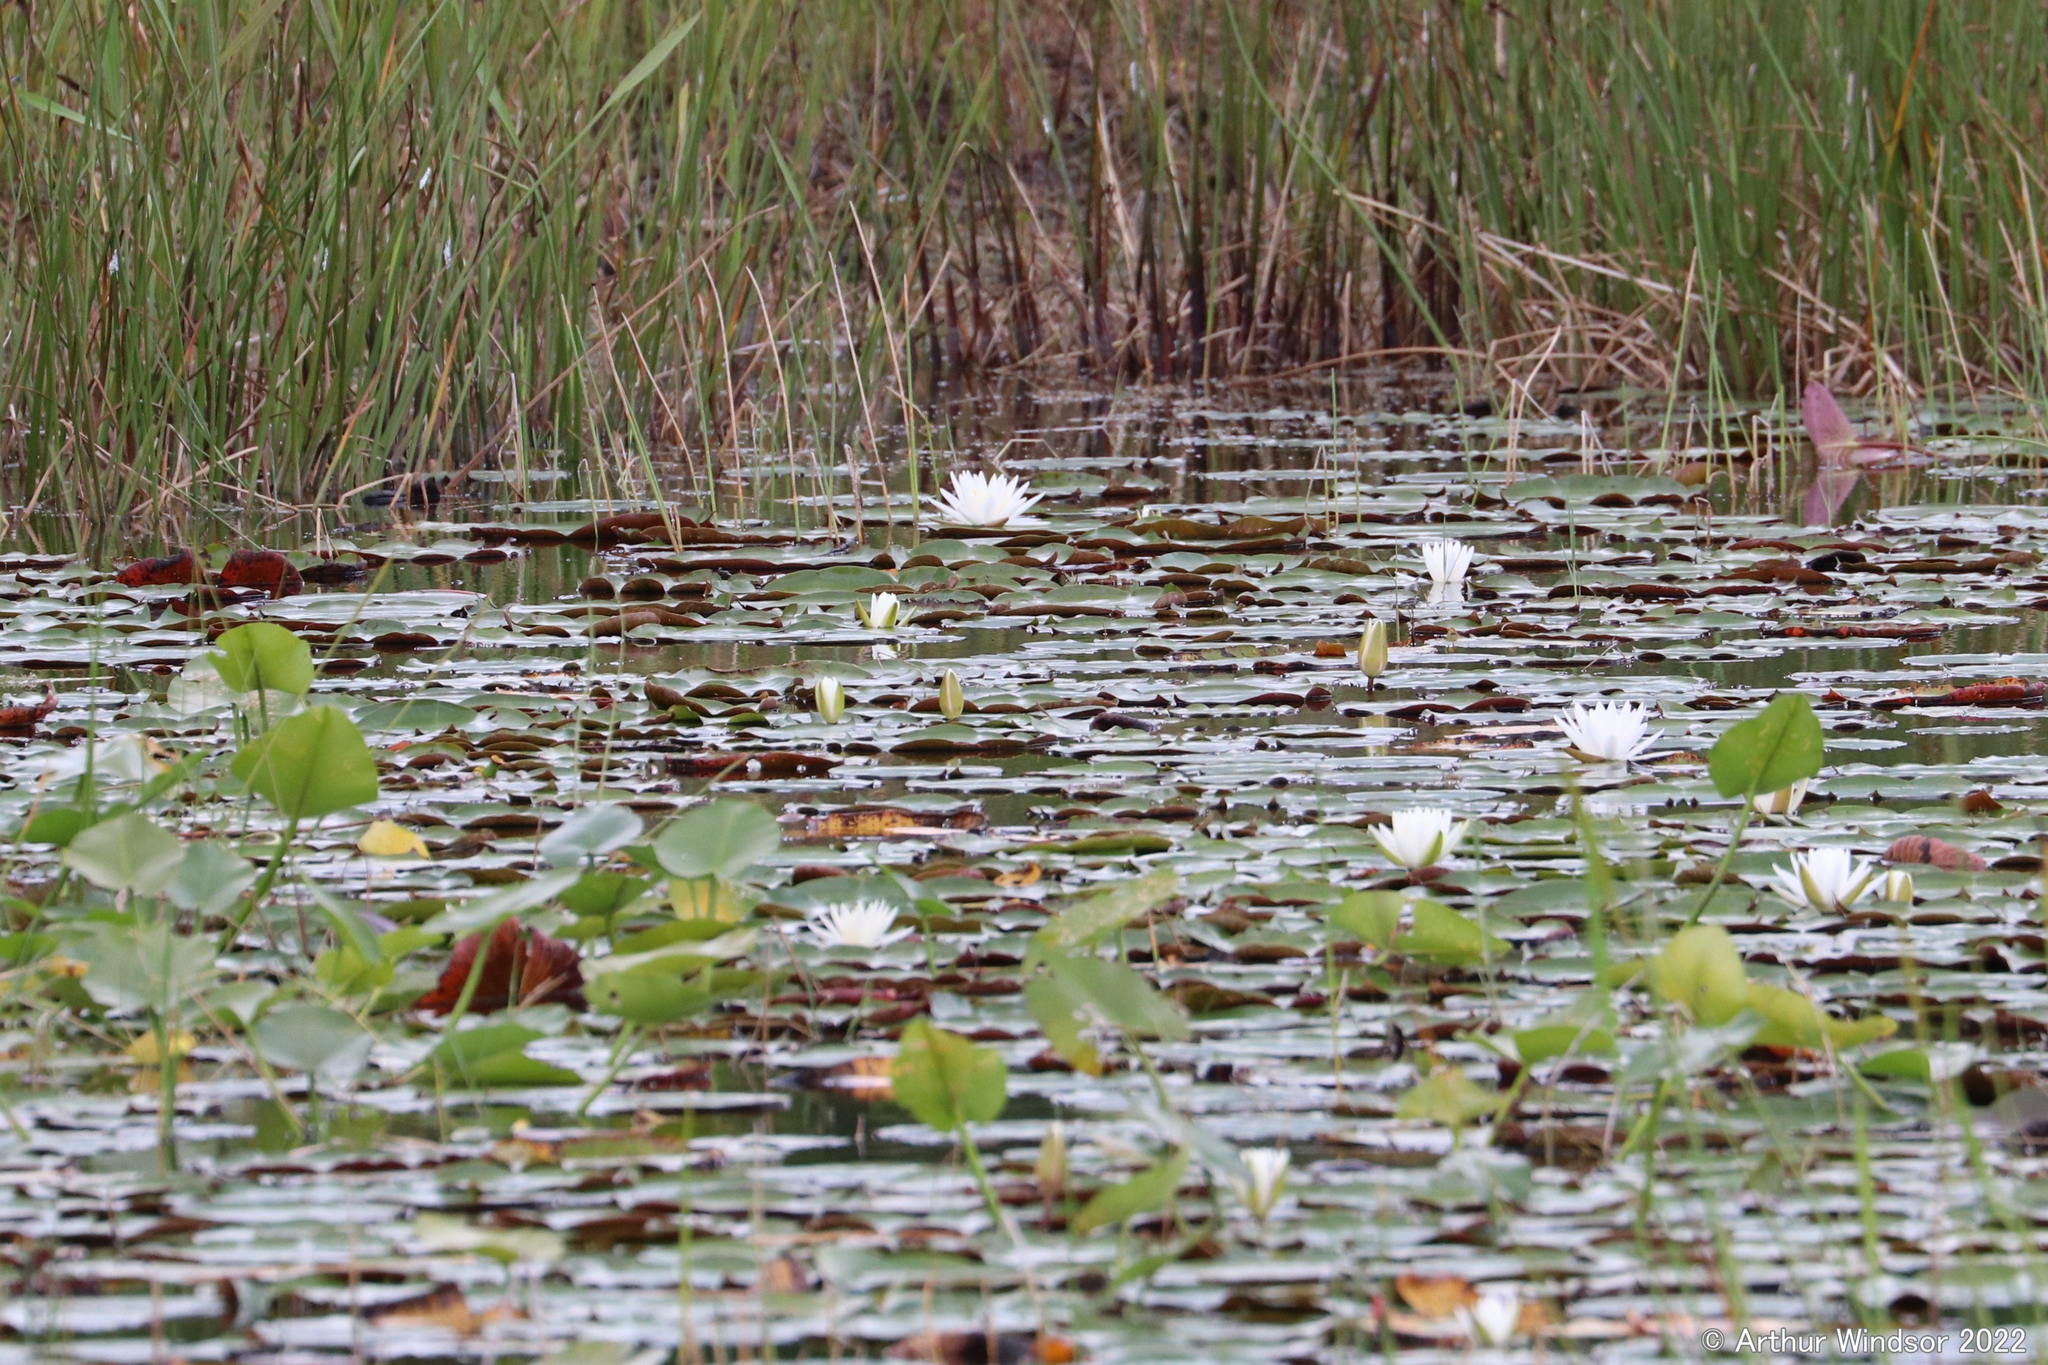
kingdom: Plantae
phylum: Tracheophyta
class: Magnoliopsida
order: Nymphaeales
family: Nymphaeaceae
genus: Nymphaea
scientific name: Nymphaea odorata
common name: Fragrant water-lily
